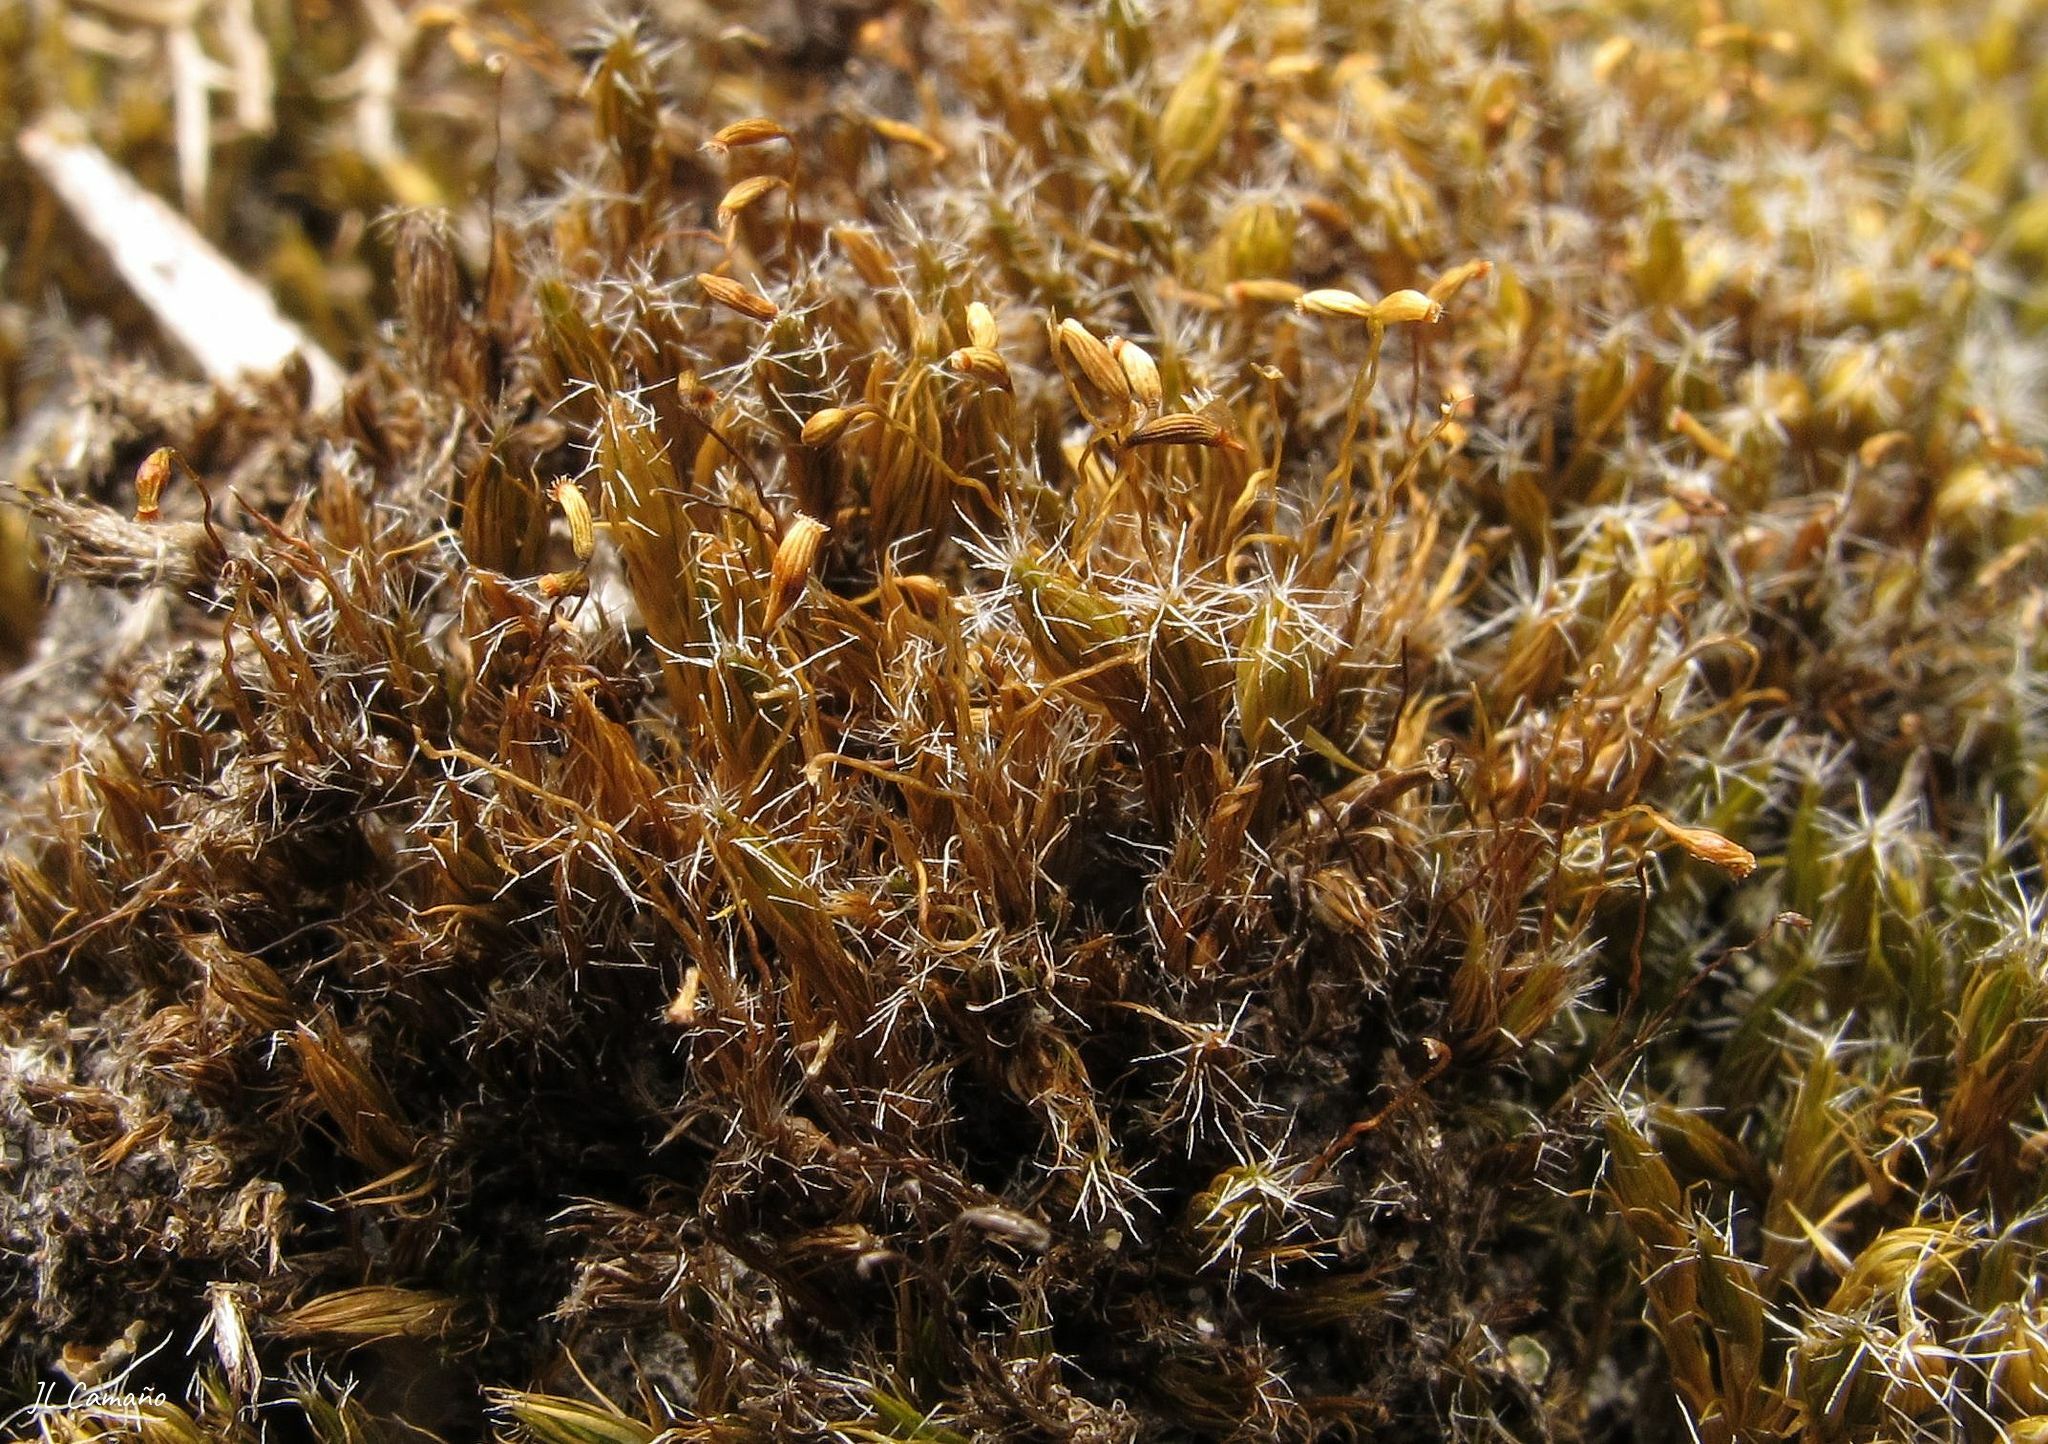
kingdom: Plantae
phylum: Bryophyta
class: Bryopsida
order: Dicranales
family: Leucobryaceae
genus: Campylopus
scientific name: Campylopus introflexus
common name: Heath star moss
